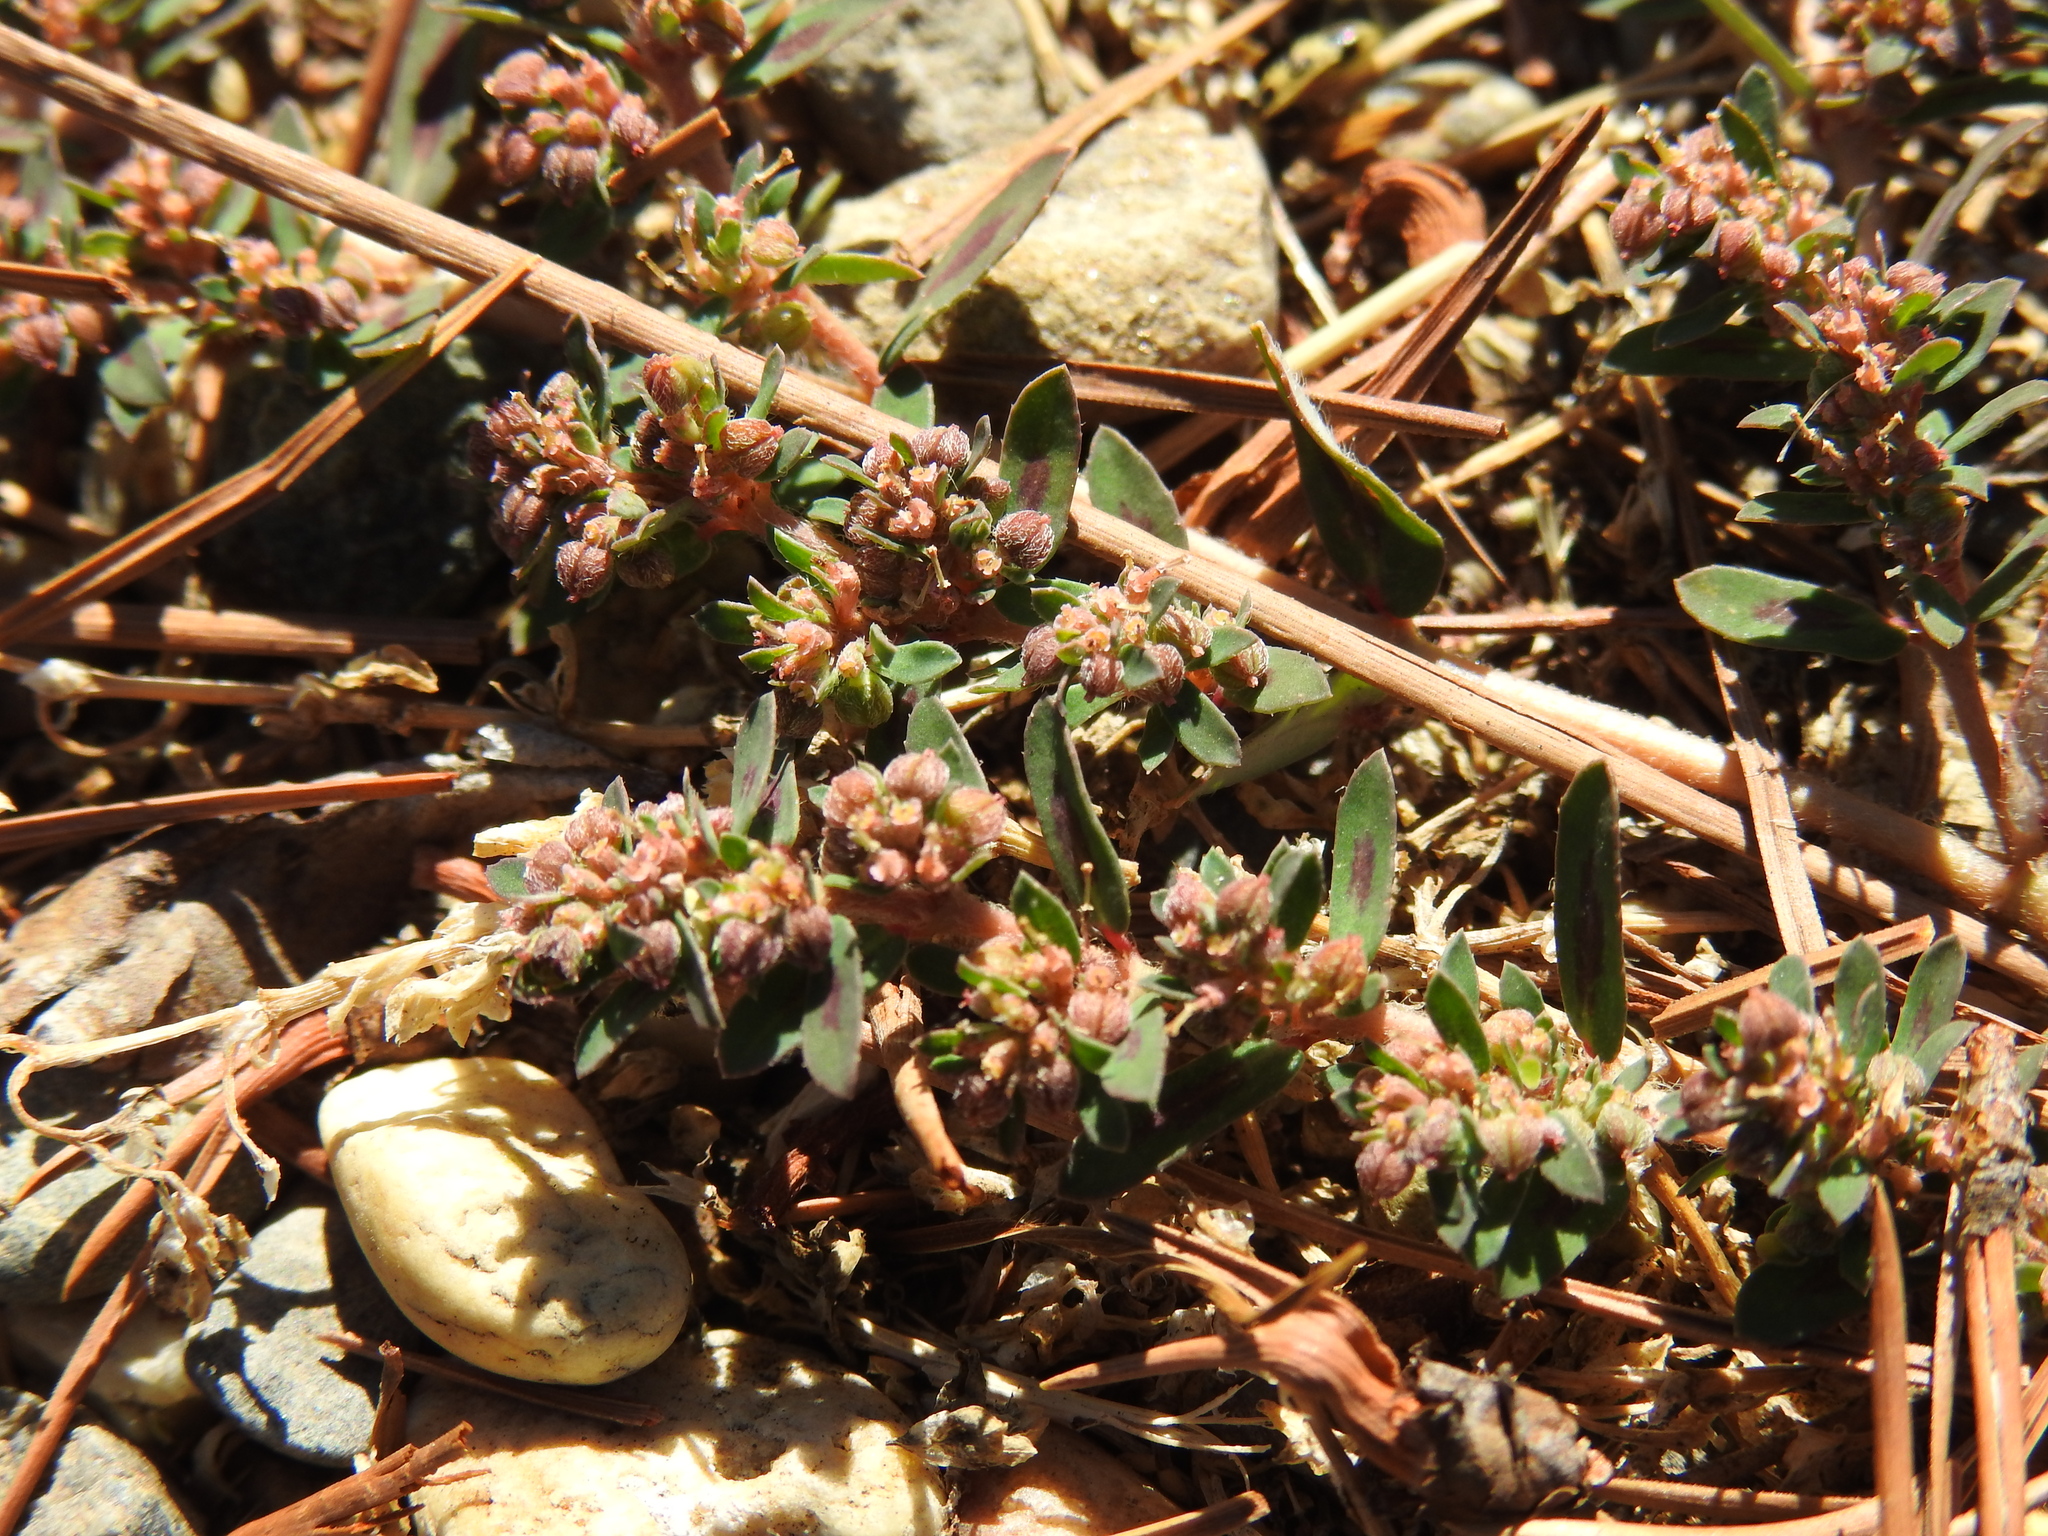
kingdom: Plantae
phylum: Tracheophyta
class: Magnoliopsida
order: Malpighiales
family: Euphorbiaceae
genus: Euphorbia
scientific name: Euphorbia maculata
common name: Spotted spurge
